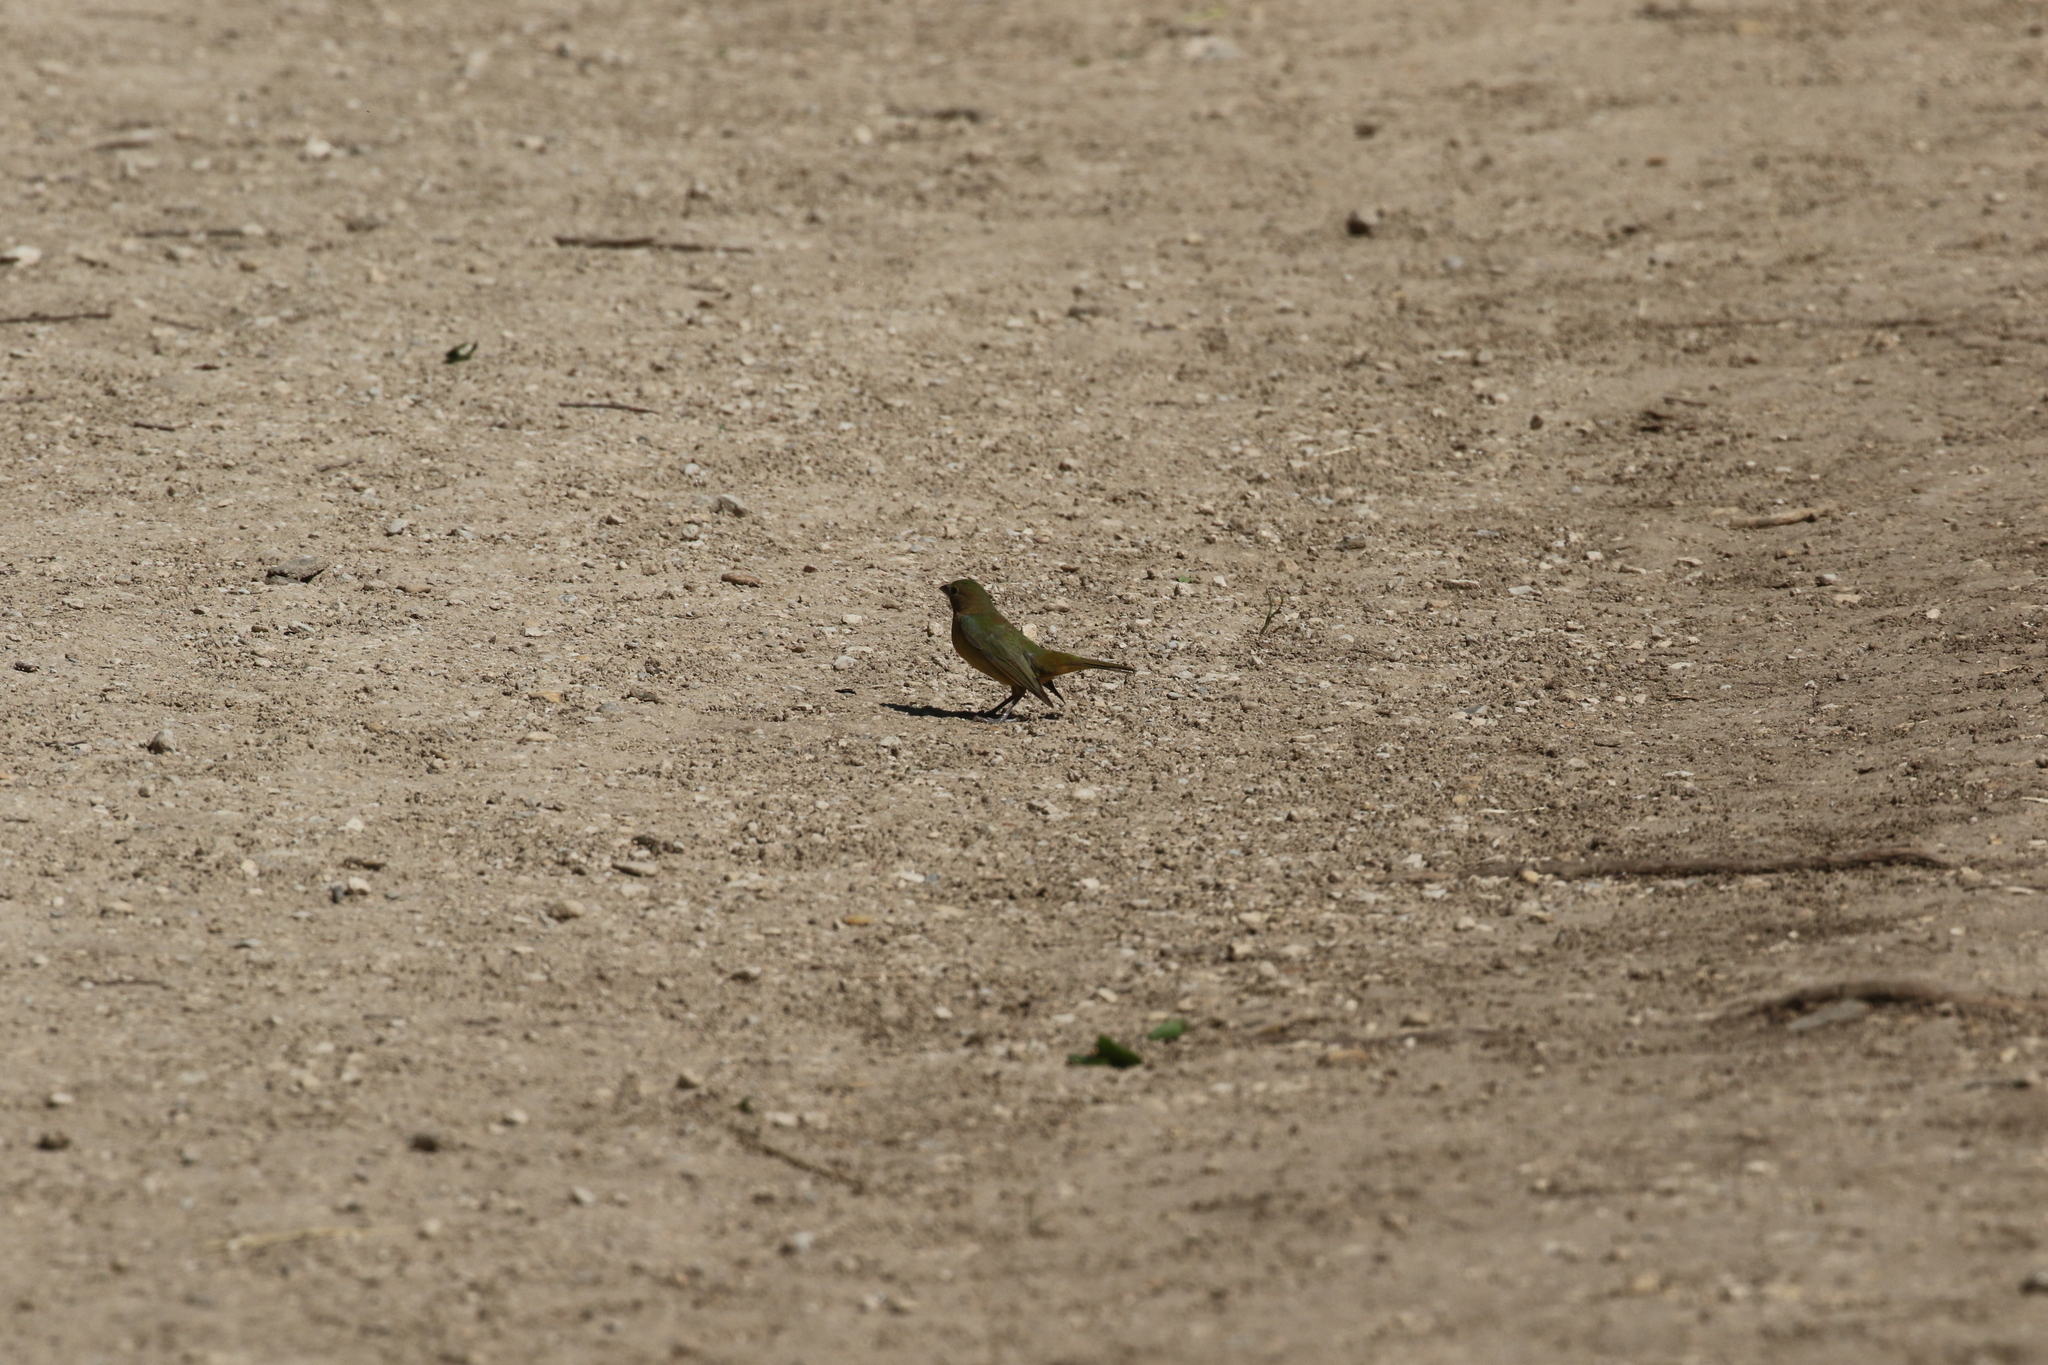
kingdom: Animalia
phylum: Chordata
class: Aves
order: Passeriformes
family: Cardinalidae
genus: Passerina
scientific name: Passerina ciris
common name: Painted bunting
